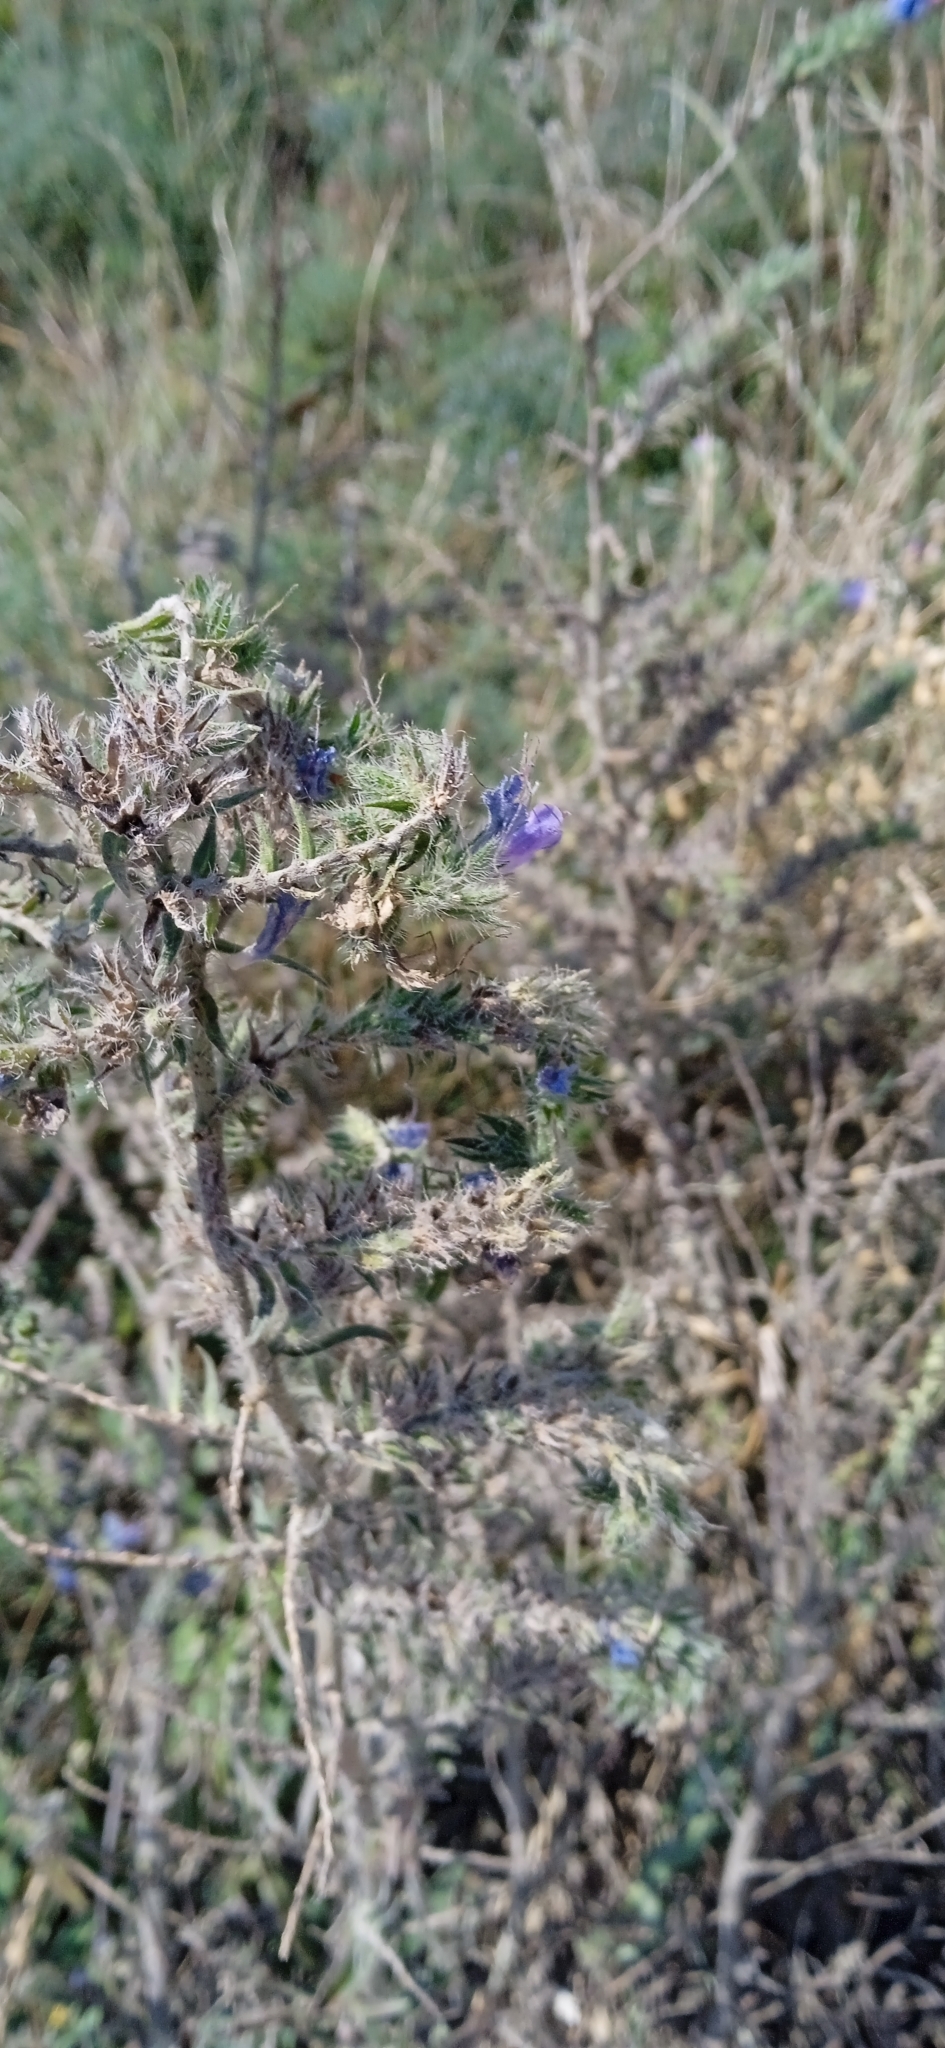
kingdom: Plantae
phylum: Tracheophyta
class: Magnoliopsida
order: Boraginales
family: Boraginaceae
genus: Echium
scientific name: Echium vulgare
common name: Common viper's bugloss
